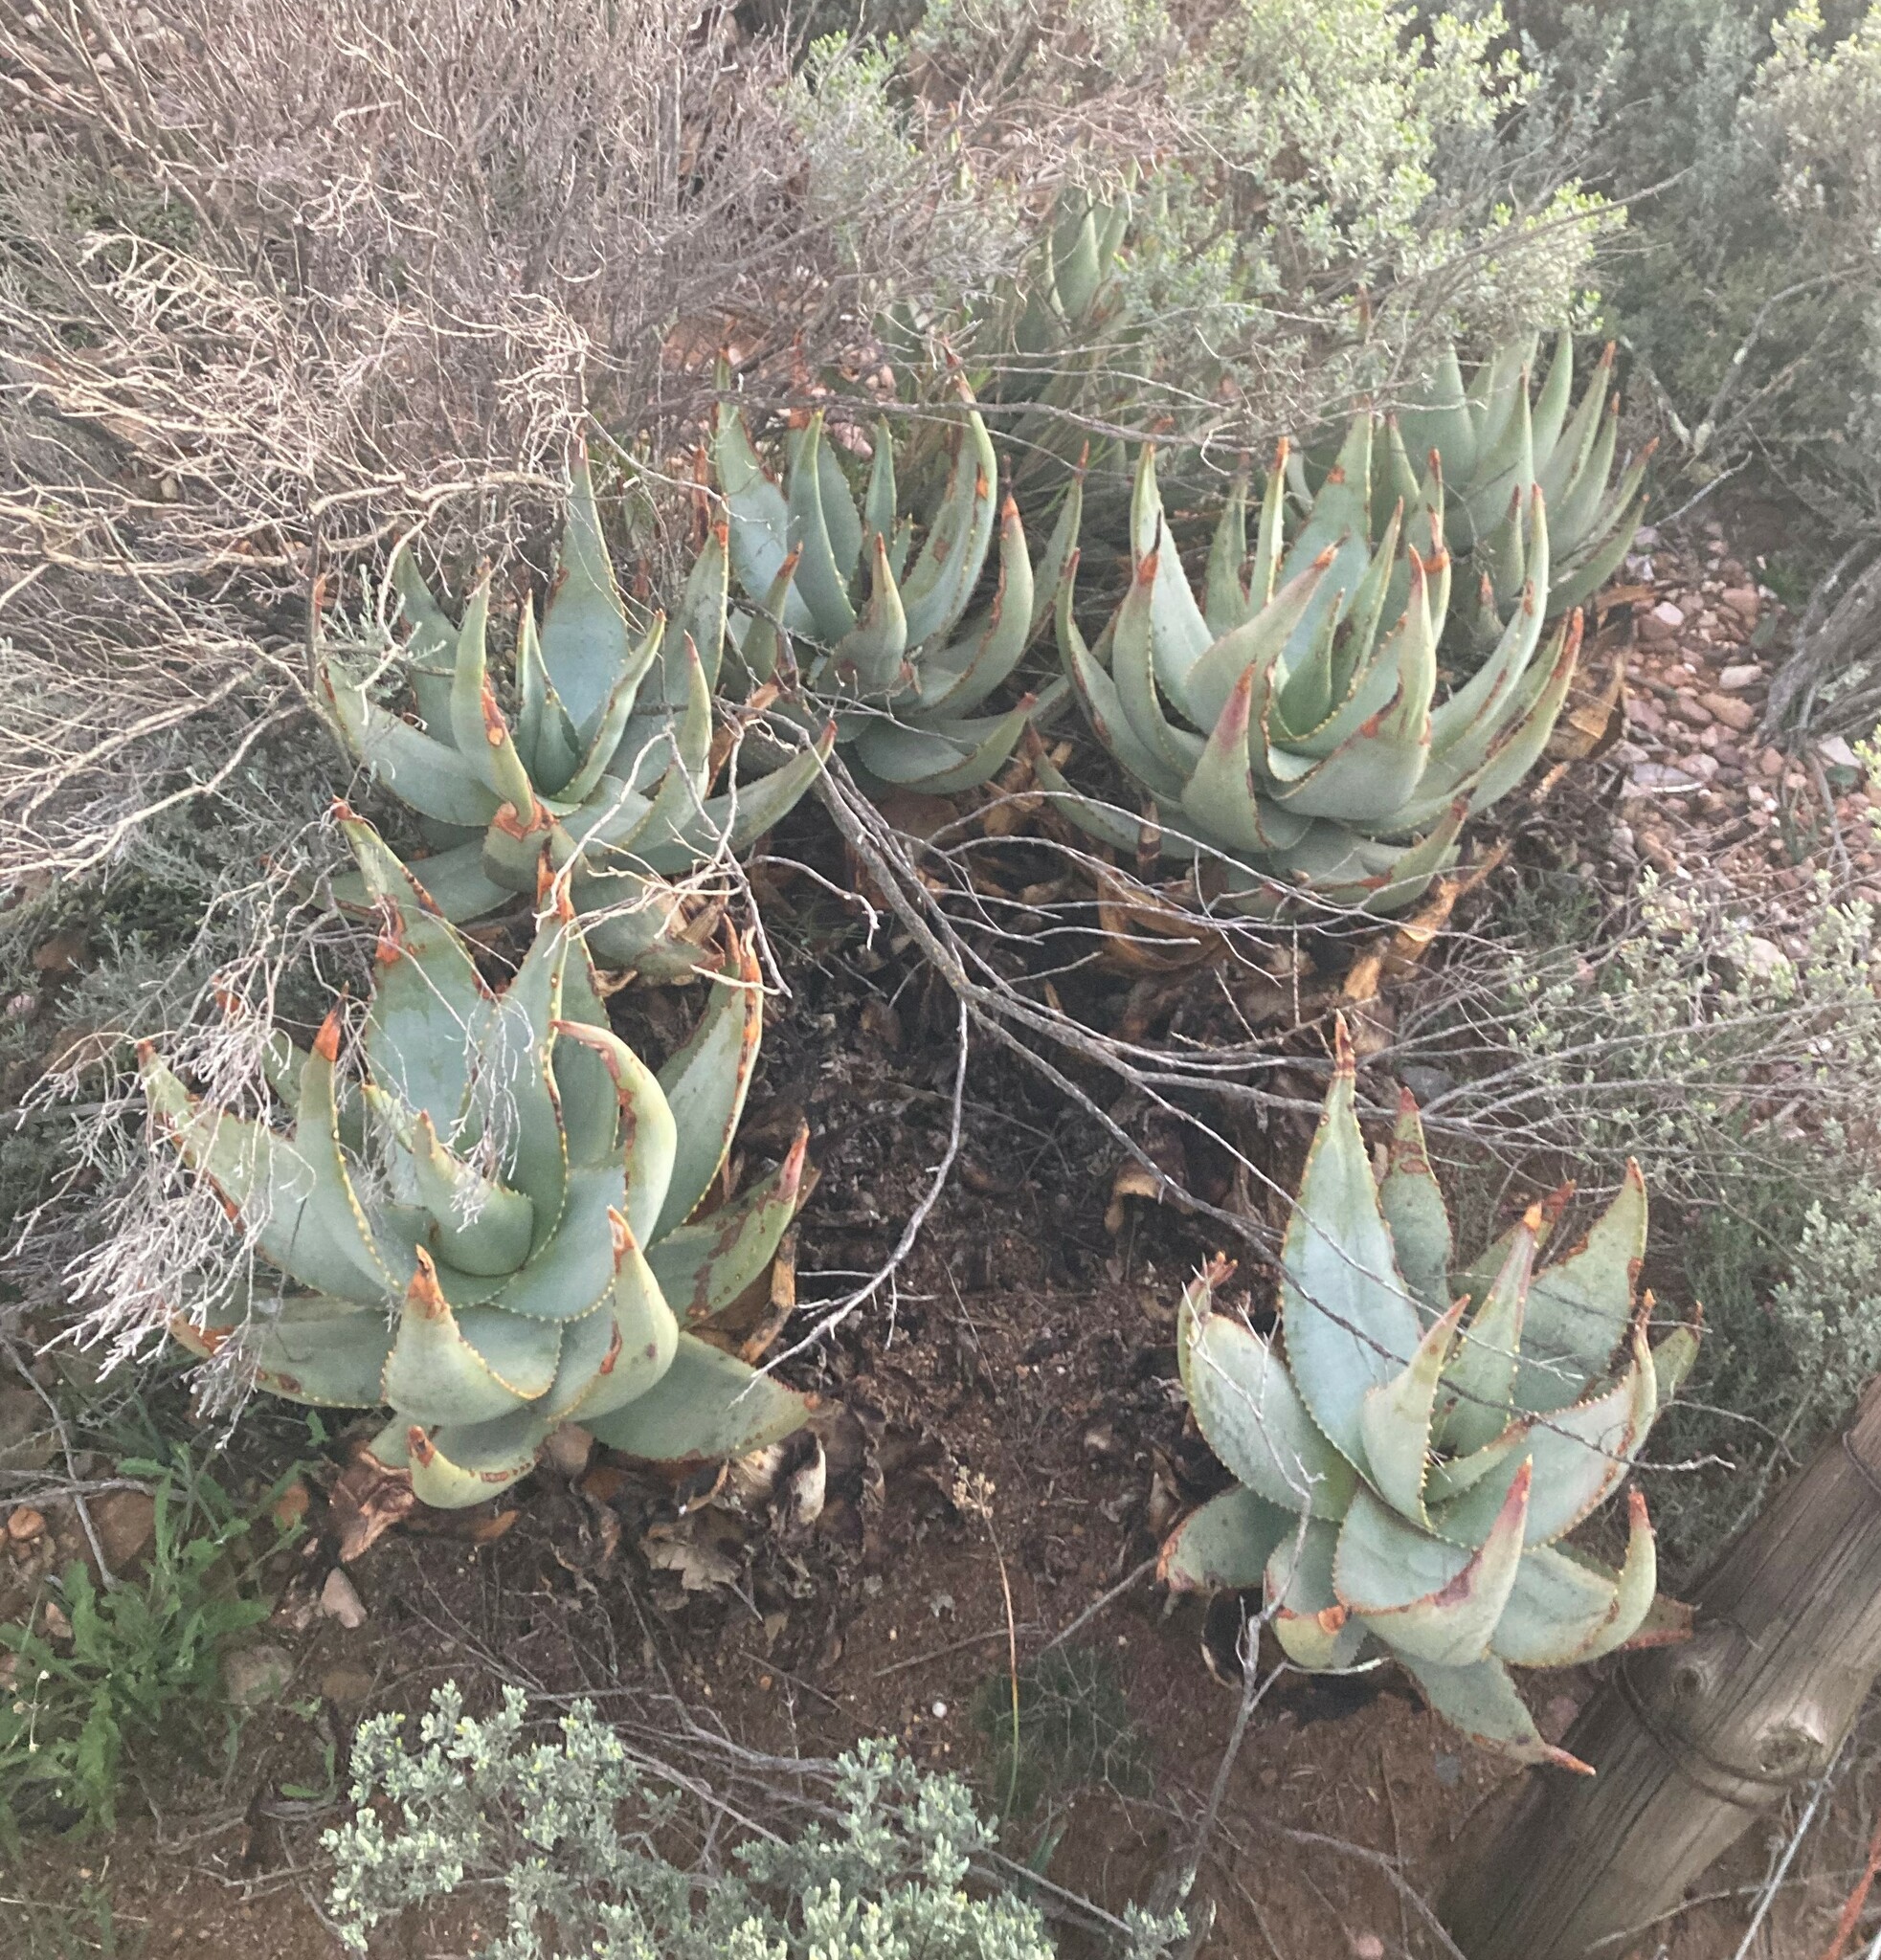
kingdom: Plantae
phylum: Tracheophyta
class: Liliopsida
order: Asparagales
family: Asphodelaceae
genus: Aloe
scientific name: Aloe comptonii
